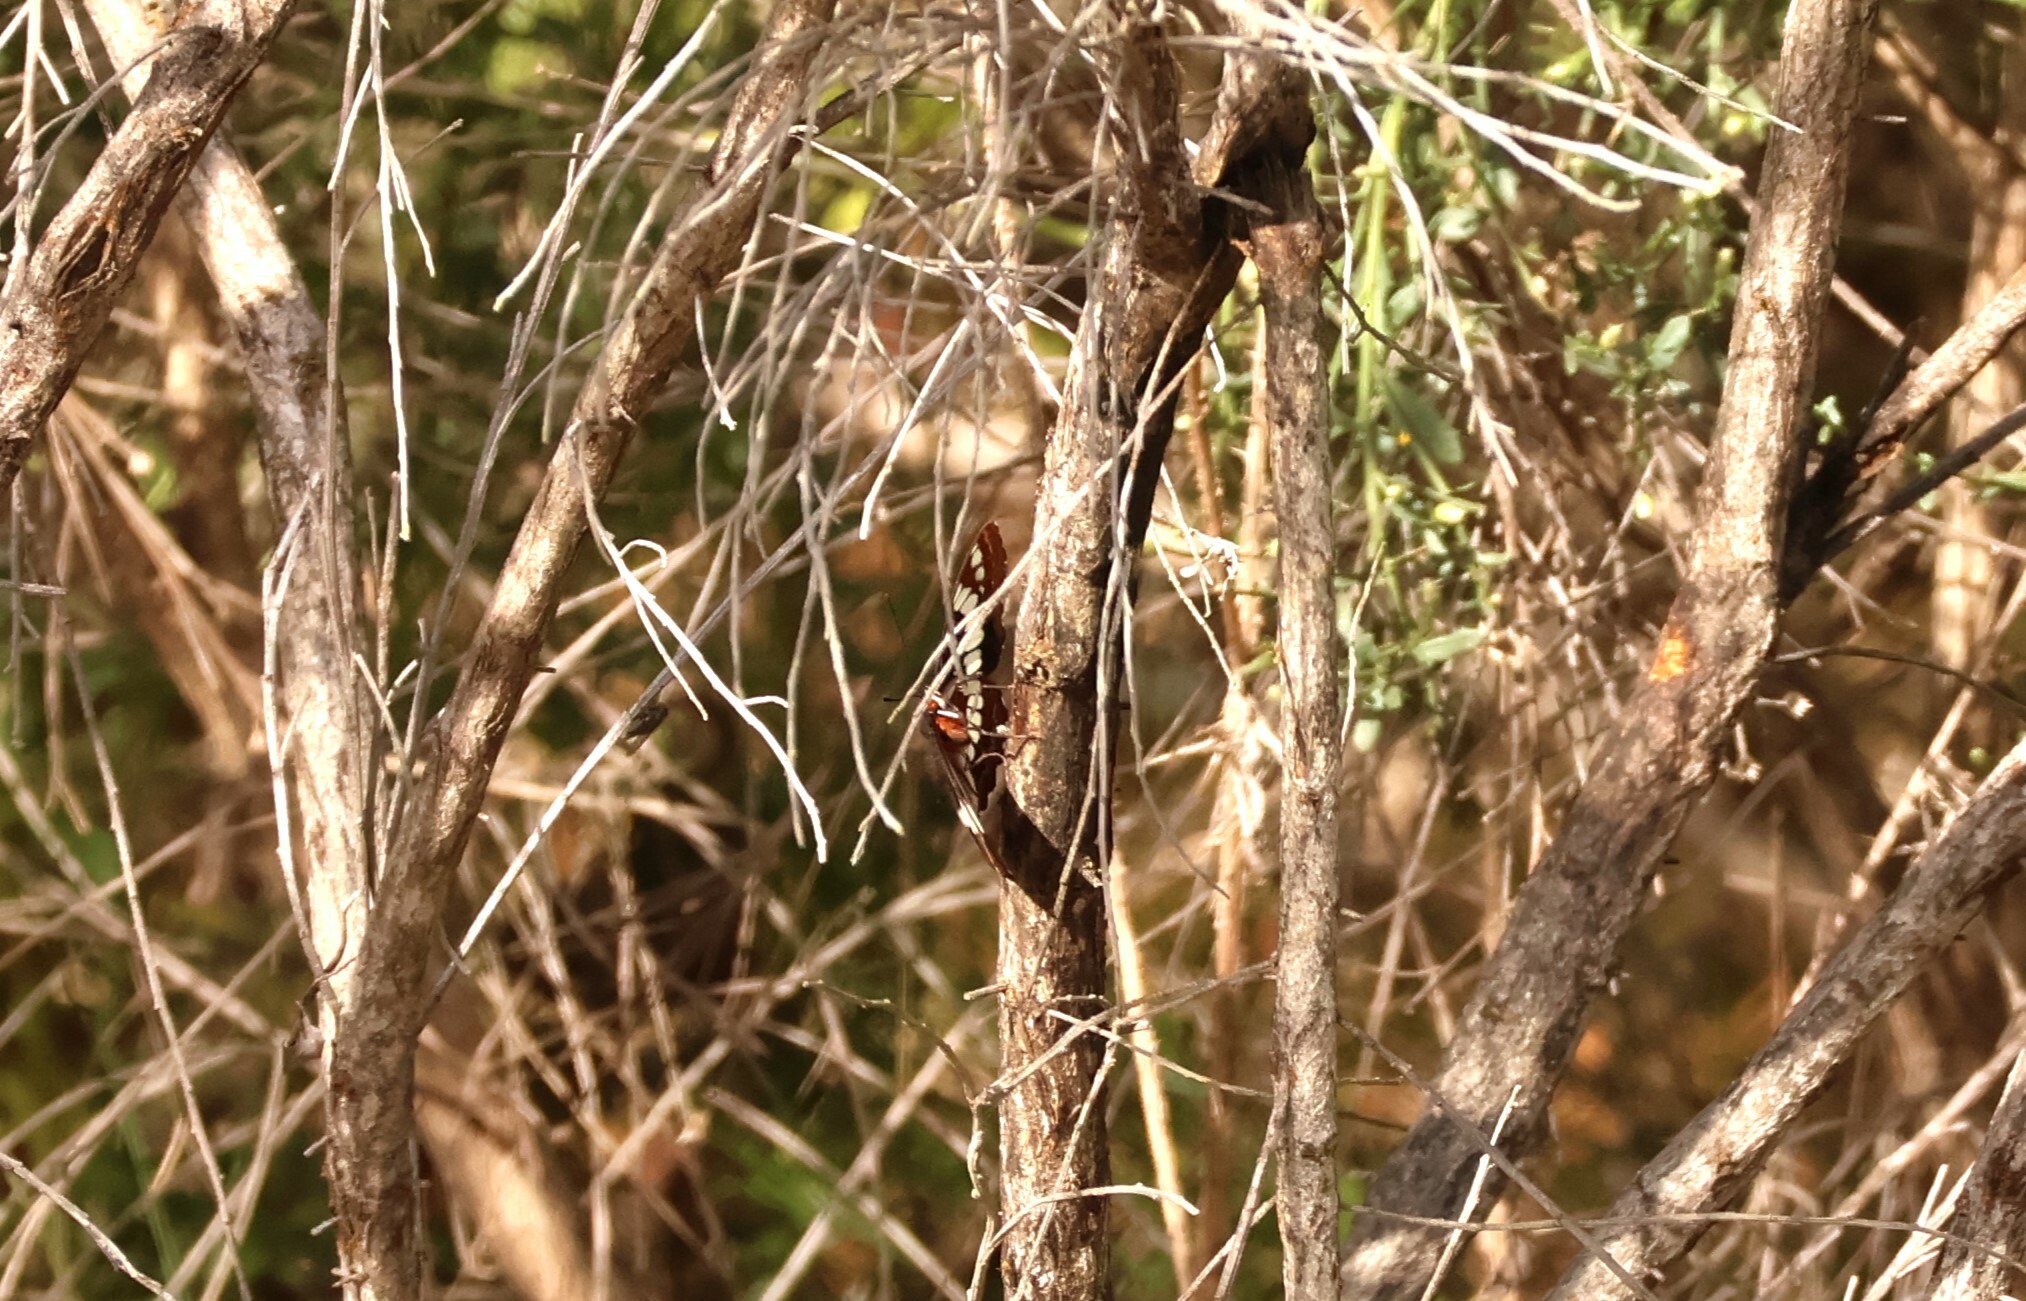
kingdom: Animalia
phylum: Arthropoda
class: Insecta
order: Lepidoptera
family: Nymphalidae
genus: Limenitis
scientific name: Limenitis lorquini
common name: Lorquin's admiral
